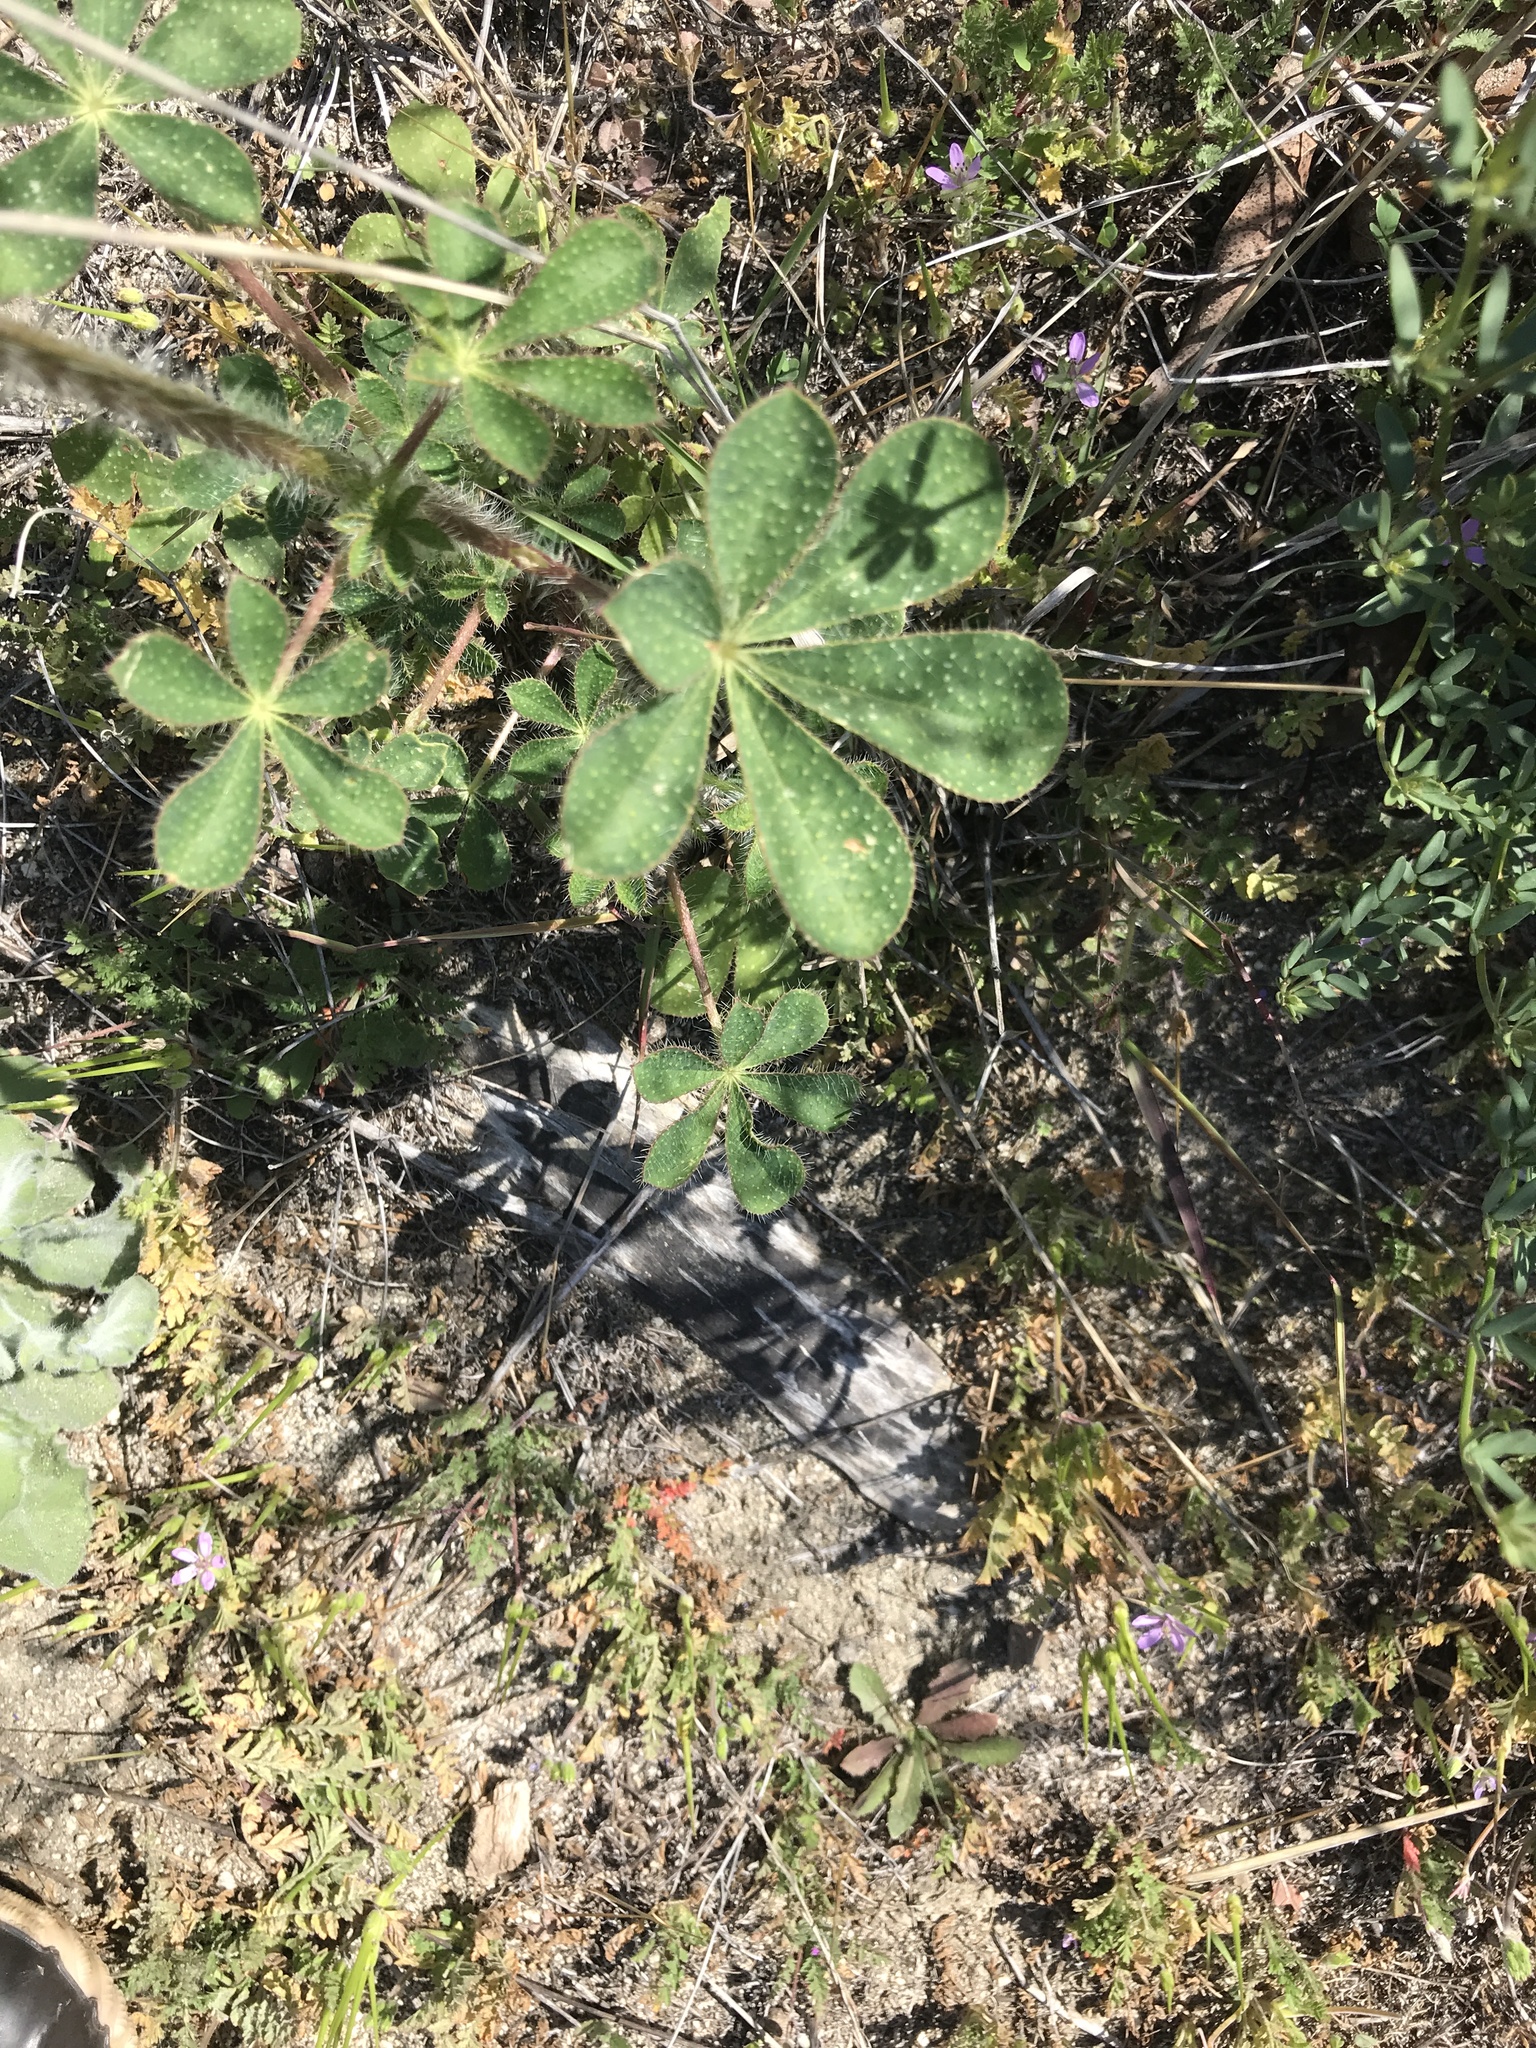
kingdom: Plantae
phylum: Tracheophyta
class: Magnoliopsida
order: Fabales
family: Fabaceae
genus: Lupinus
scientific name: Lupinus hirsutissimus
